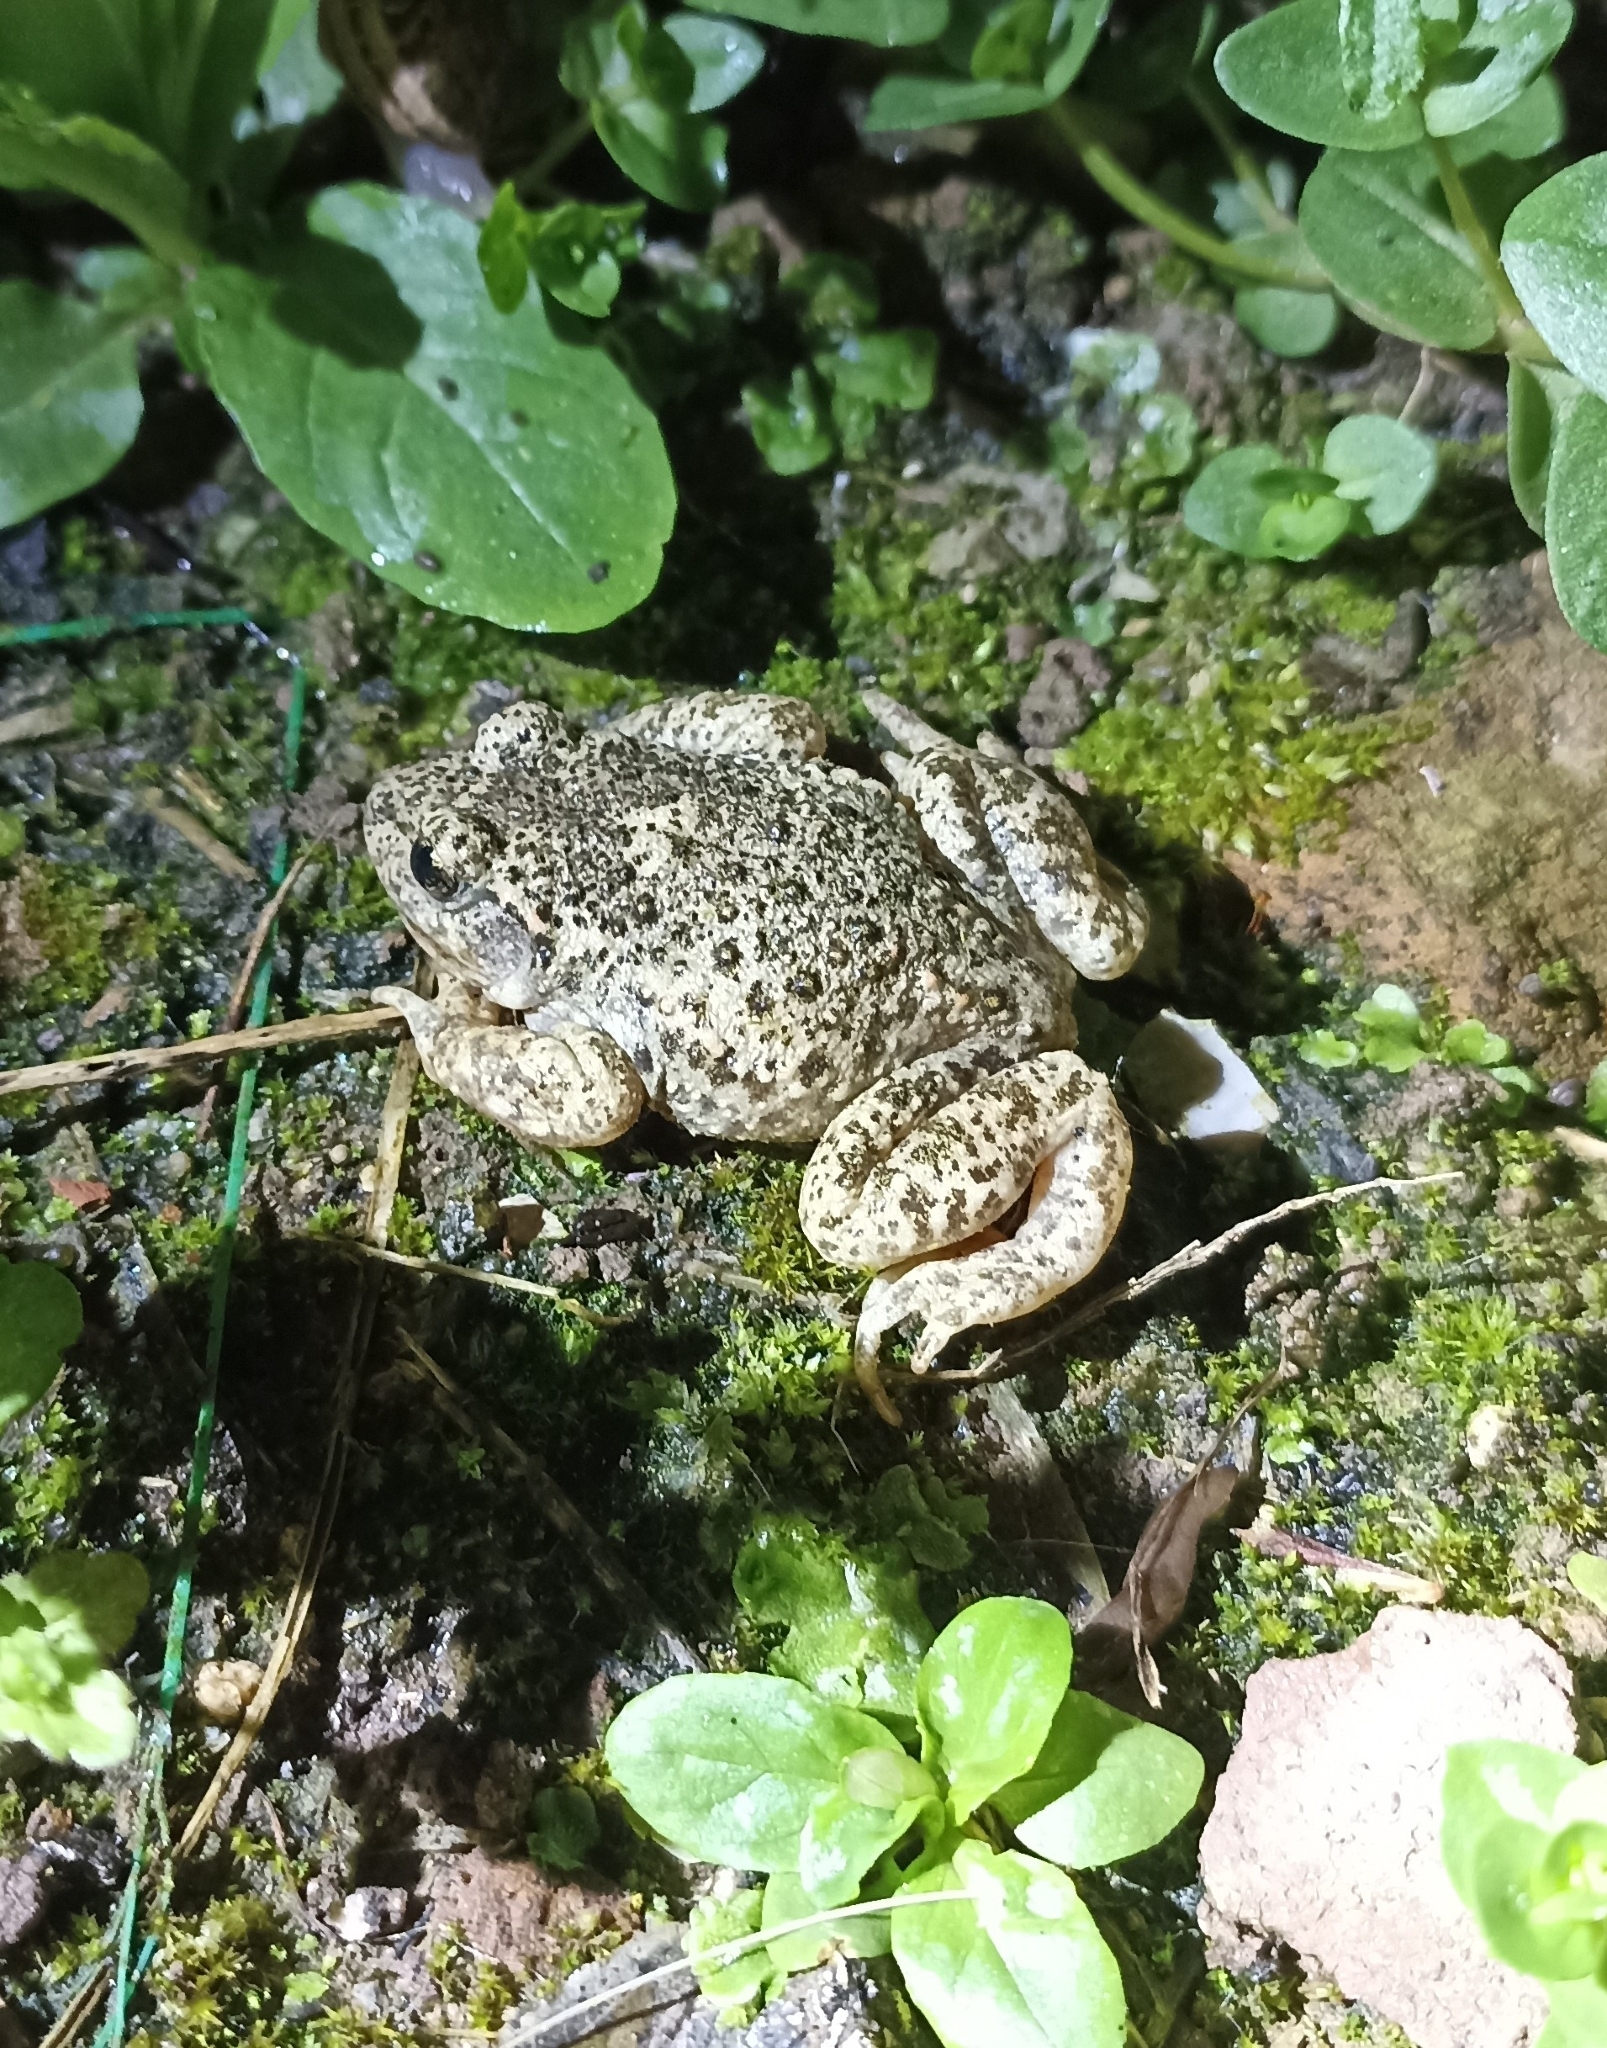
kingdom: Animalia
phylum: Chordata
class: Amphibia
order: Anura
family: Alytidae
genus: Alytes
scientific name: Alytes obstetricans
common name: Midwife toad
